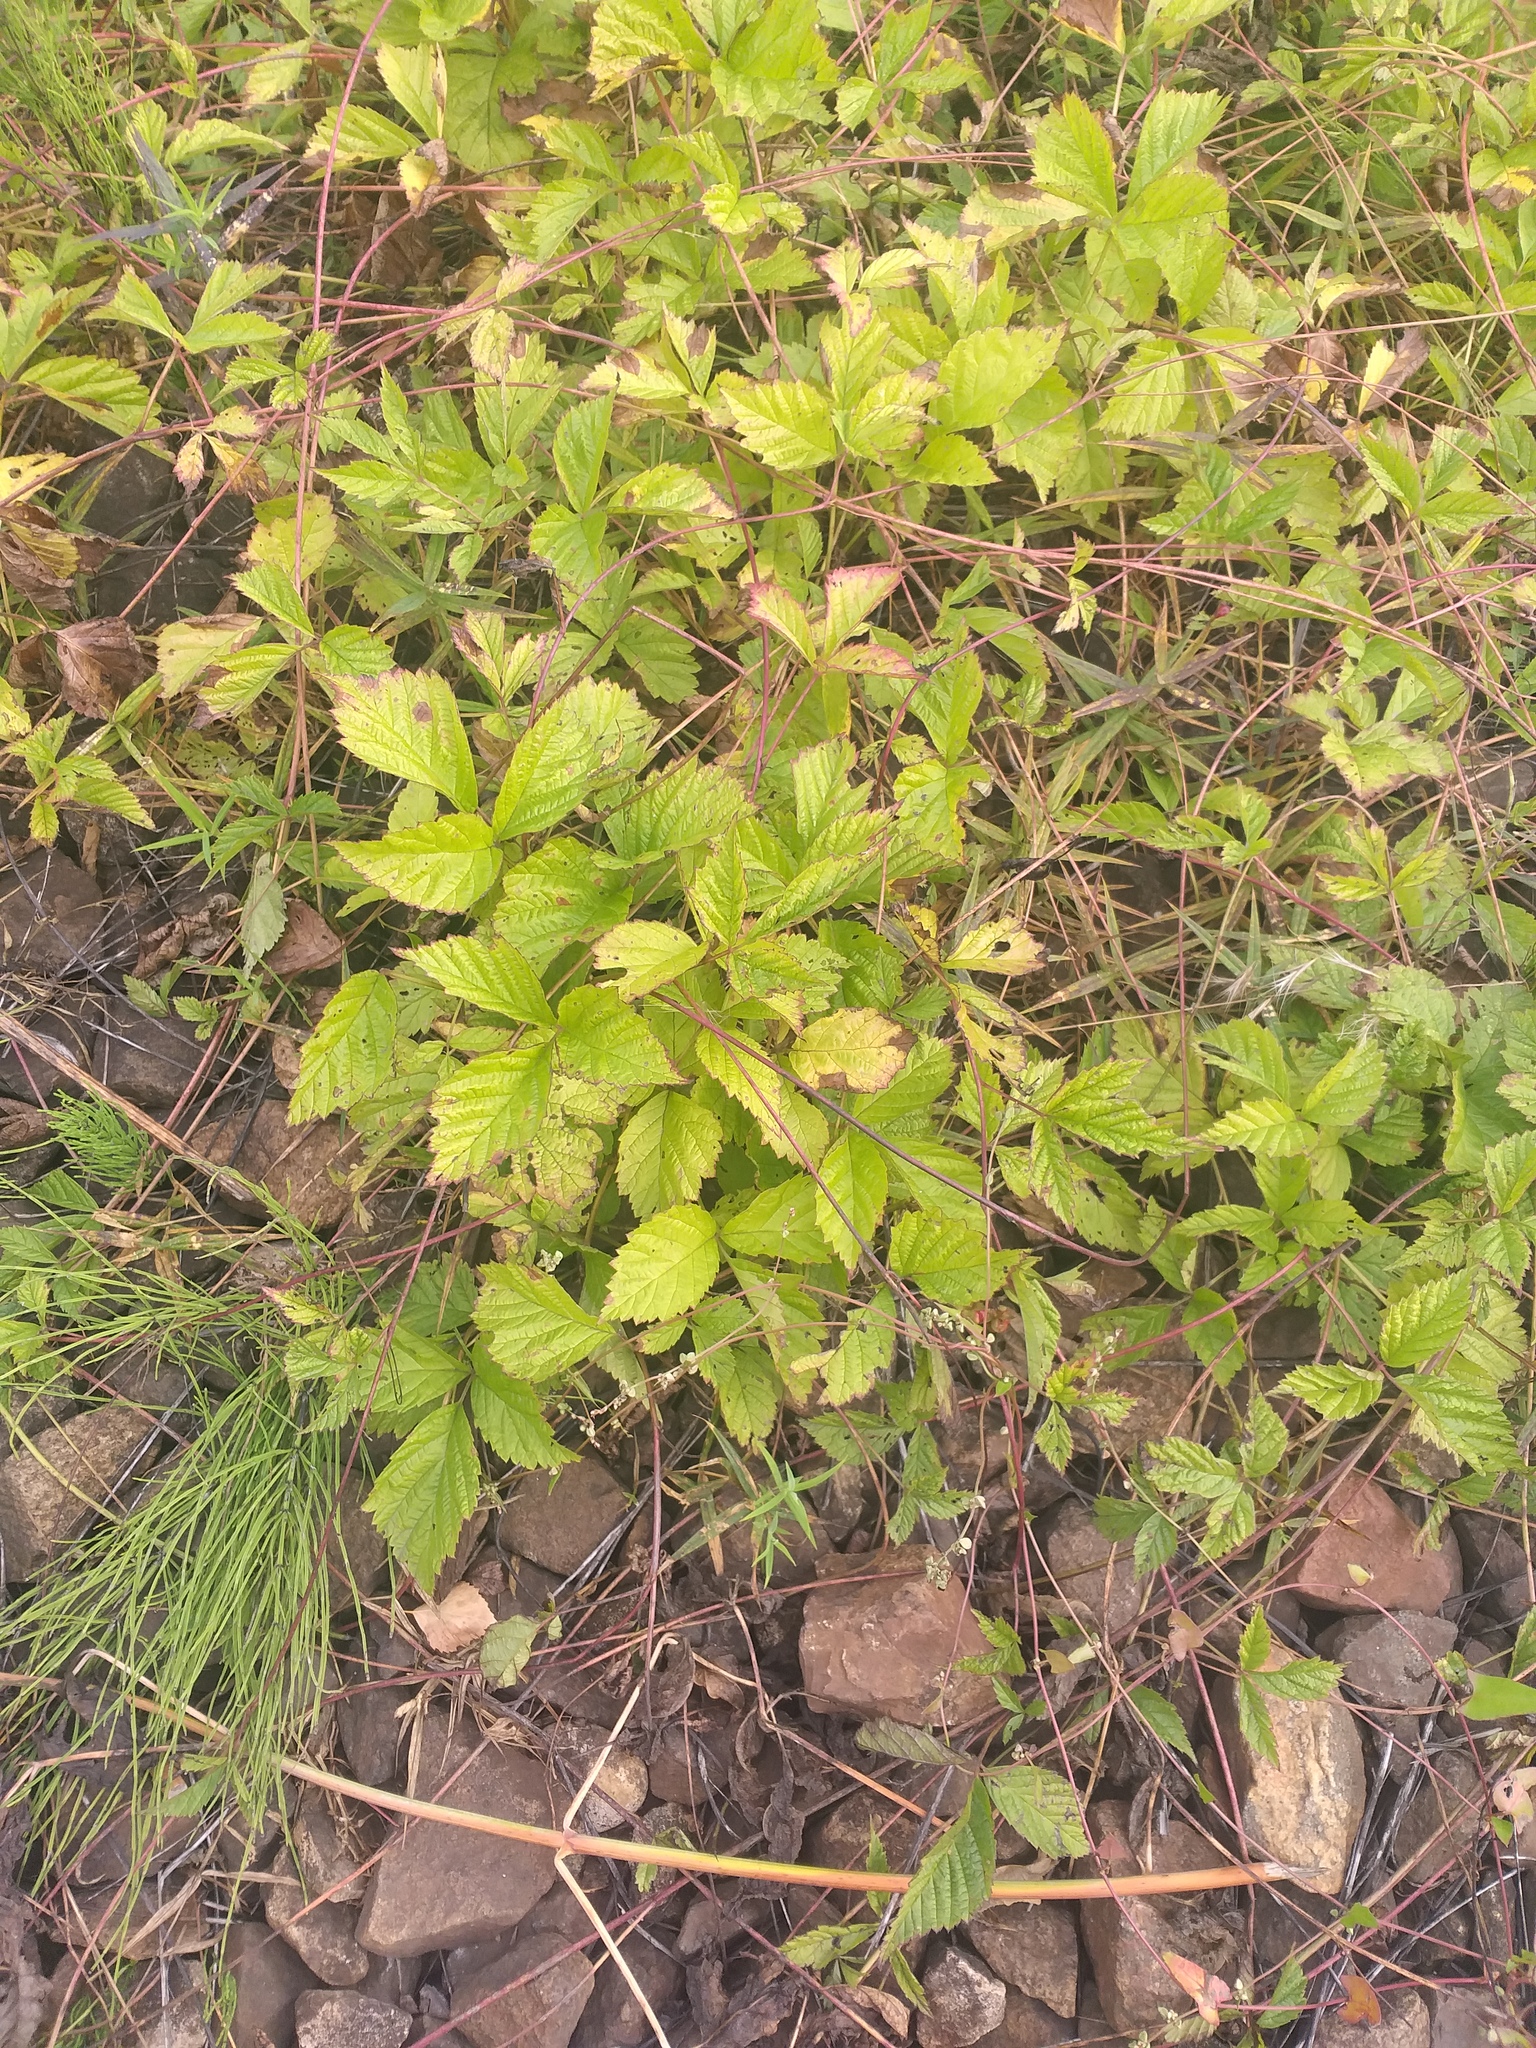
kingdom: Plantae
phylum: Tracheophyta
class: Magnoliopsida
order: Rosales
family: Rosaceae
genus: Rubus
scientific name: Rubus saxatilis
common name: Stone bramble
